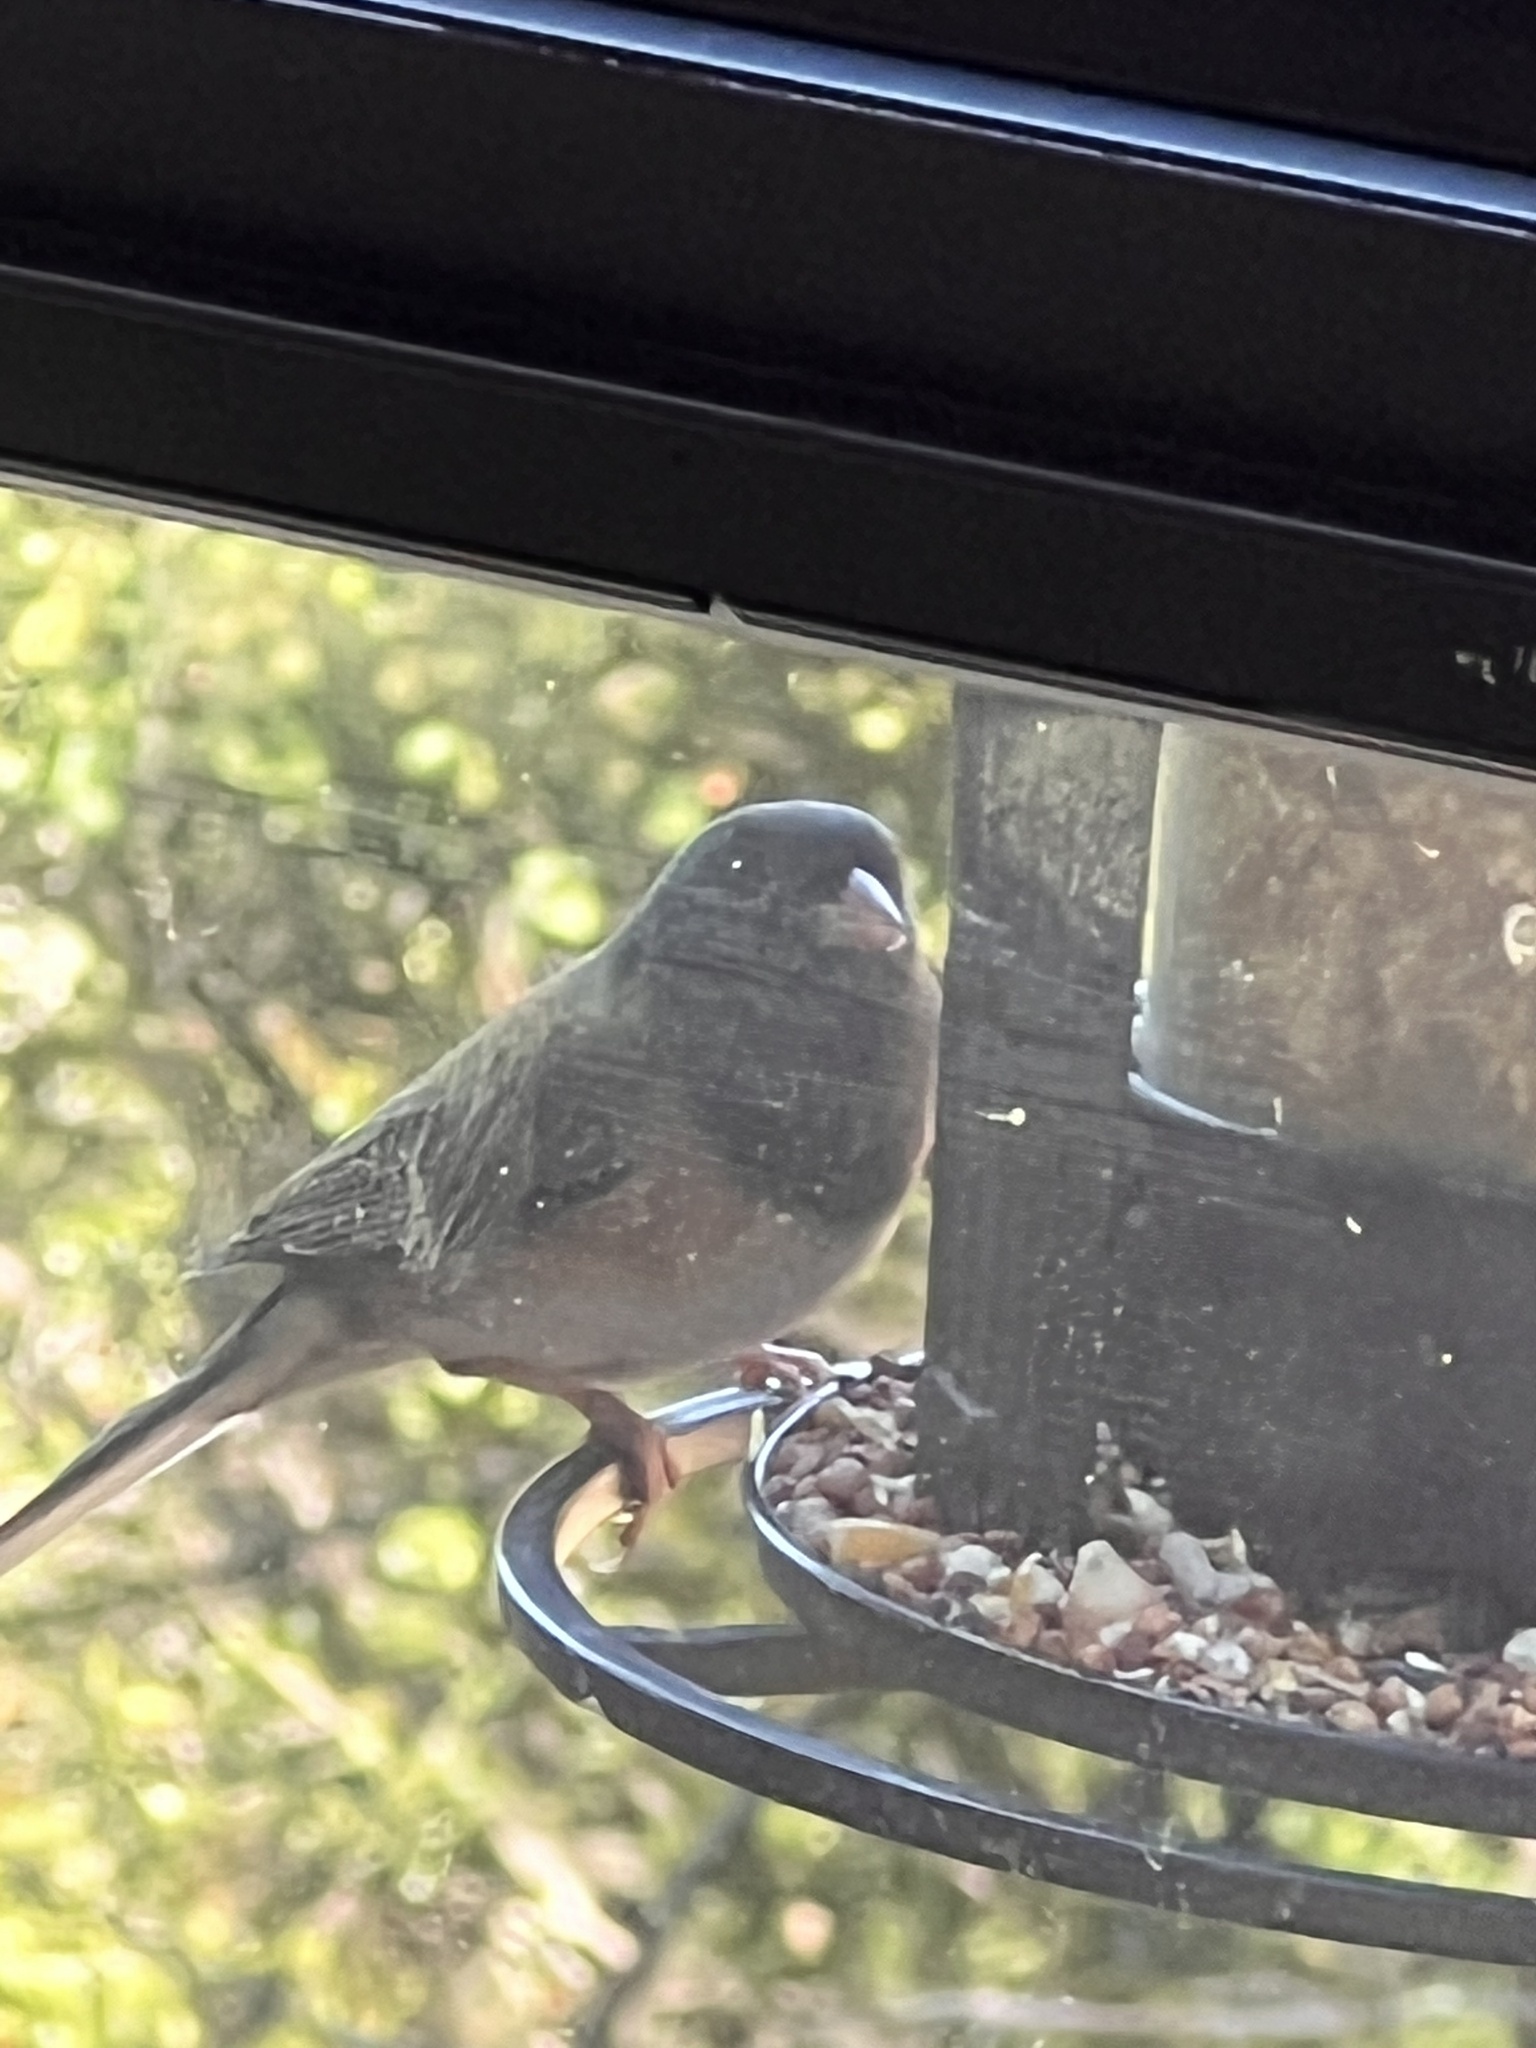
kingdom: Animalia
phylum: Chordata
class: Aves
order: Passeriformes
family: Passerellidae
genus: Junco
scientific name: Junco hyemalis
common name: Dark-eyed junco
